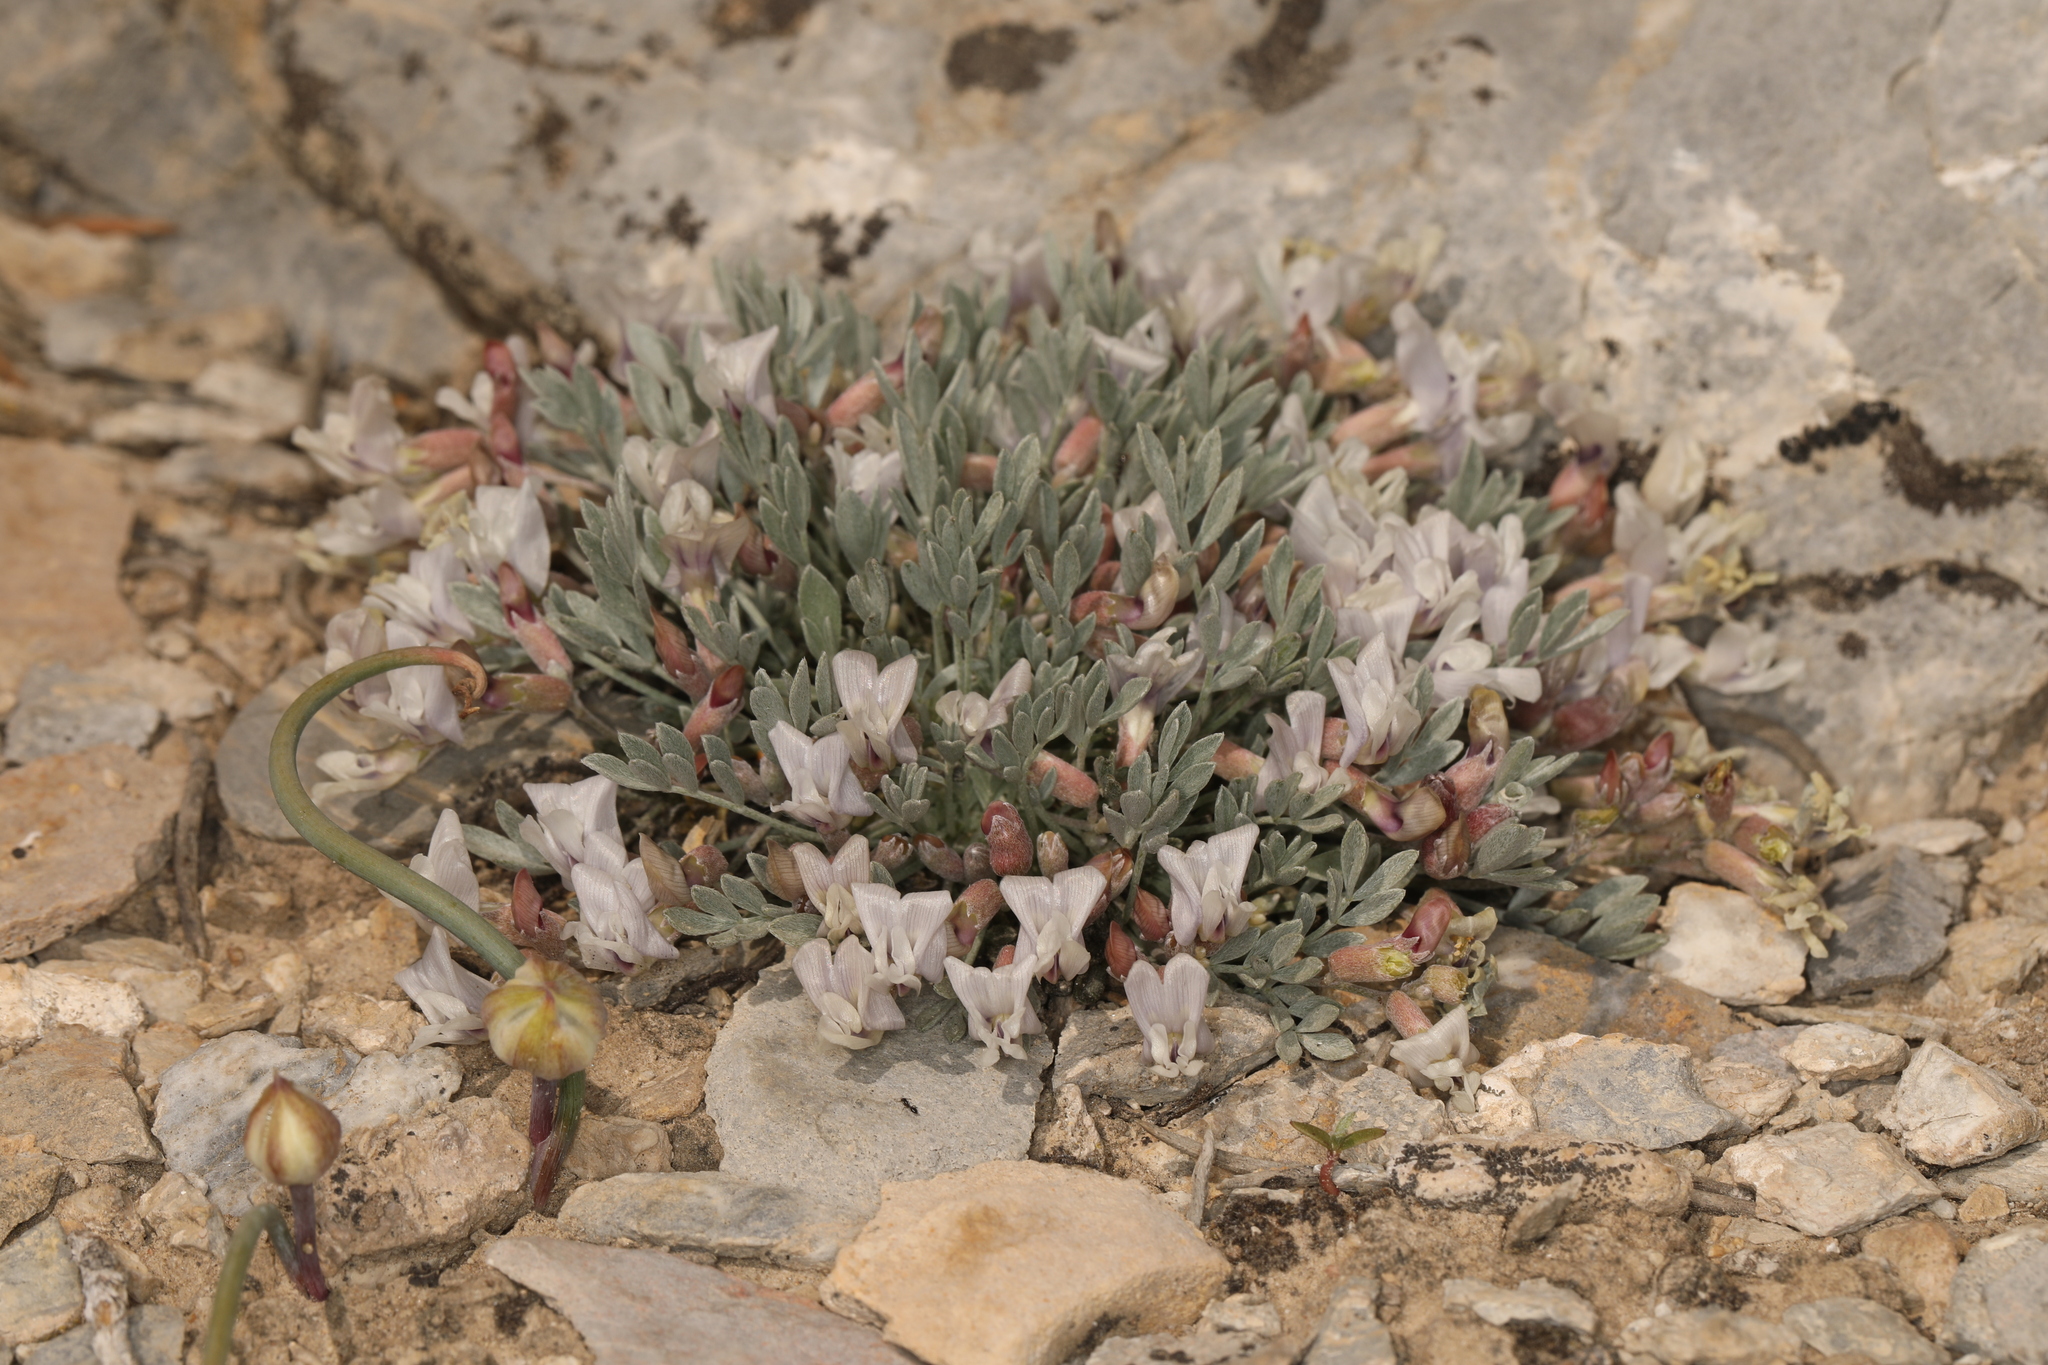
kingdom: Plantae
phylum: Tracheophyta
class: Magnoliopsida
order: Fabales
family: Fabaceae
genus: Astragalus
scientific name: Astragalus calycosus
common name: King's milkvetch
